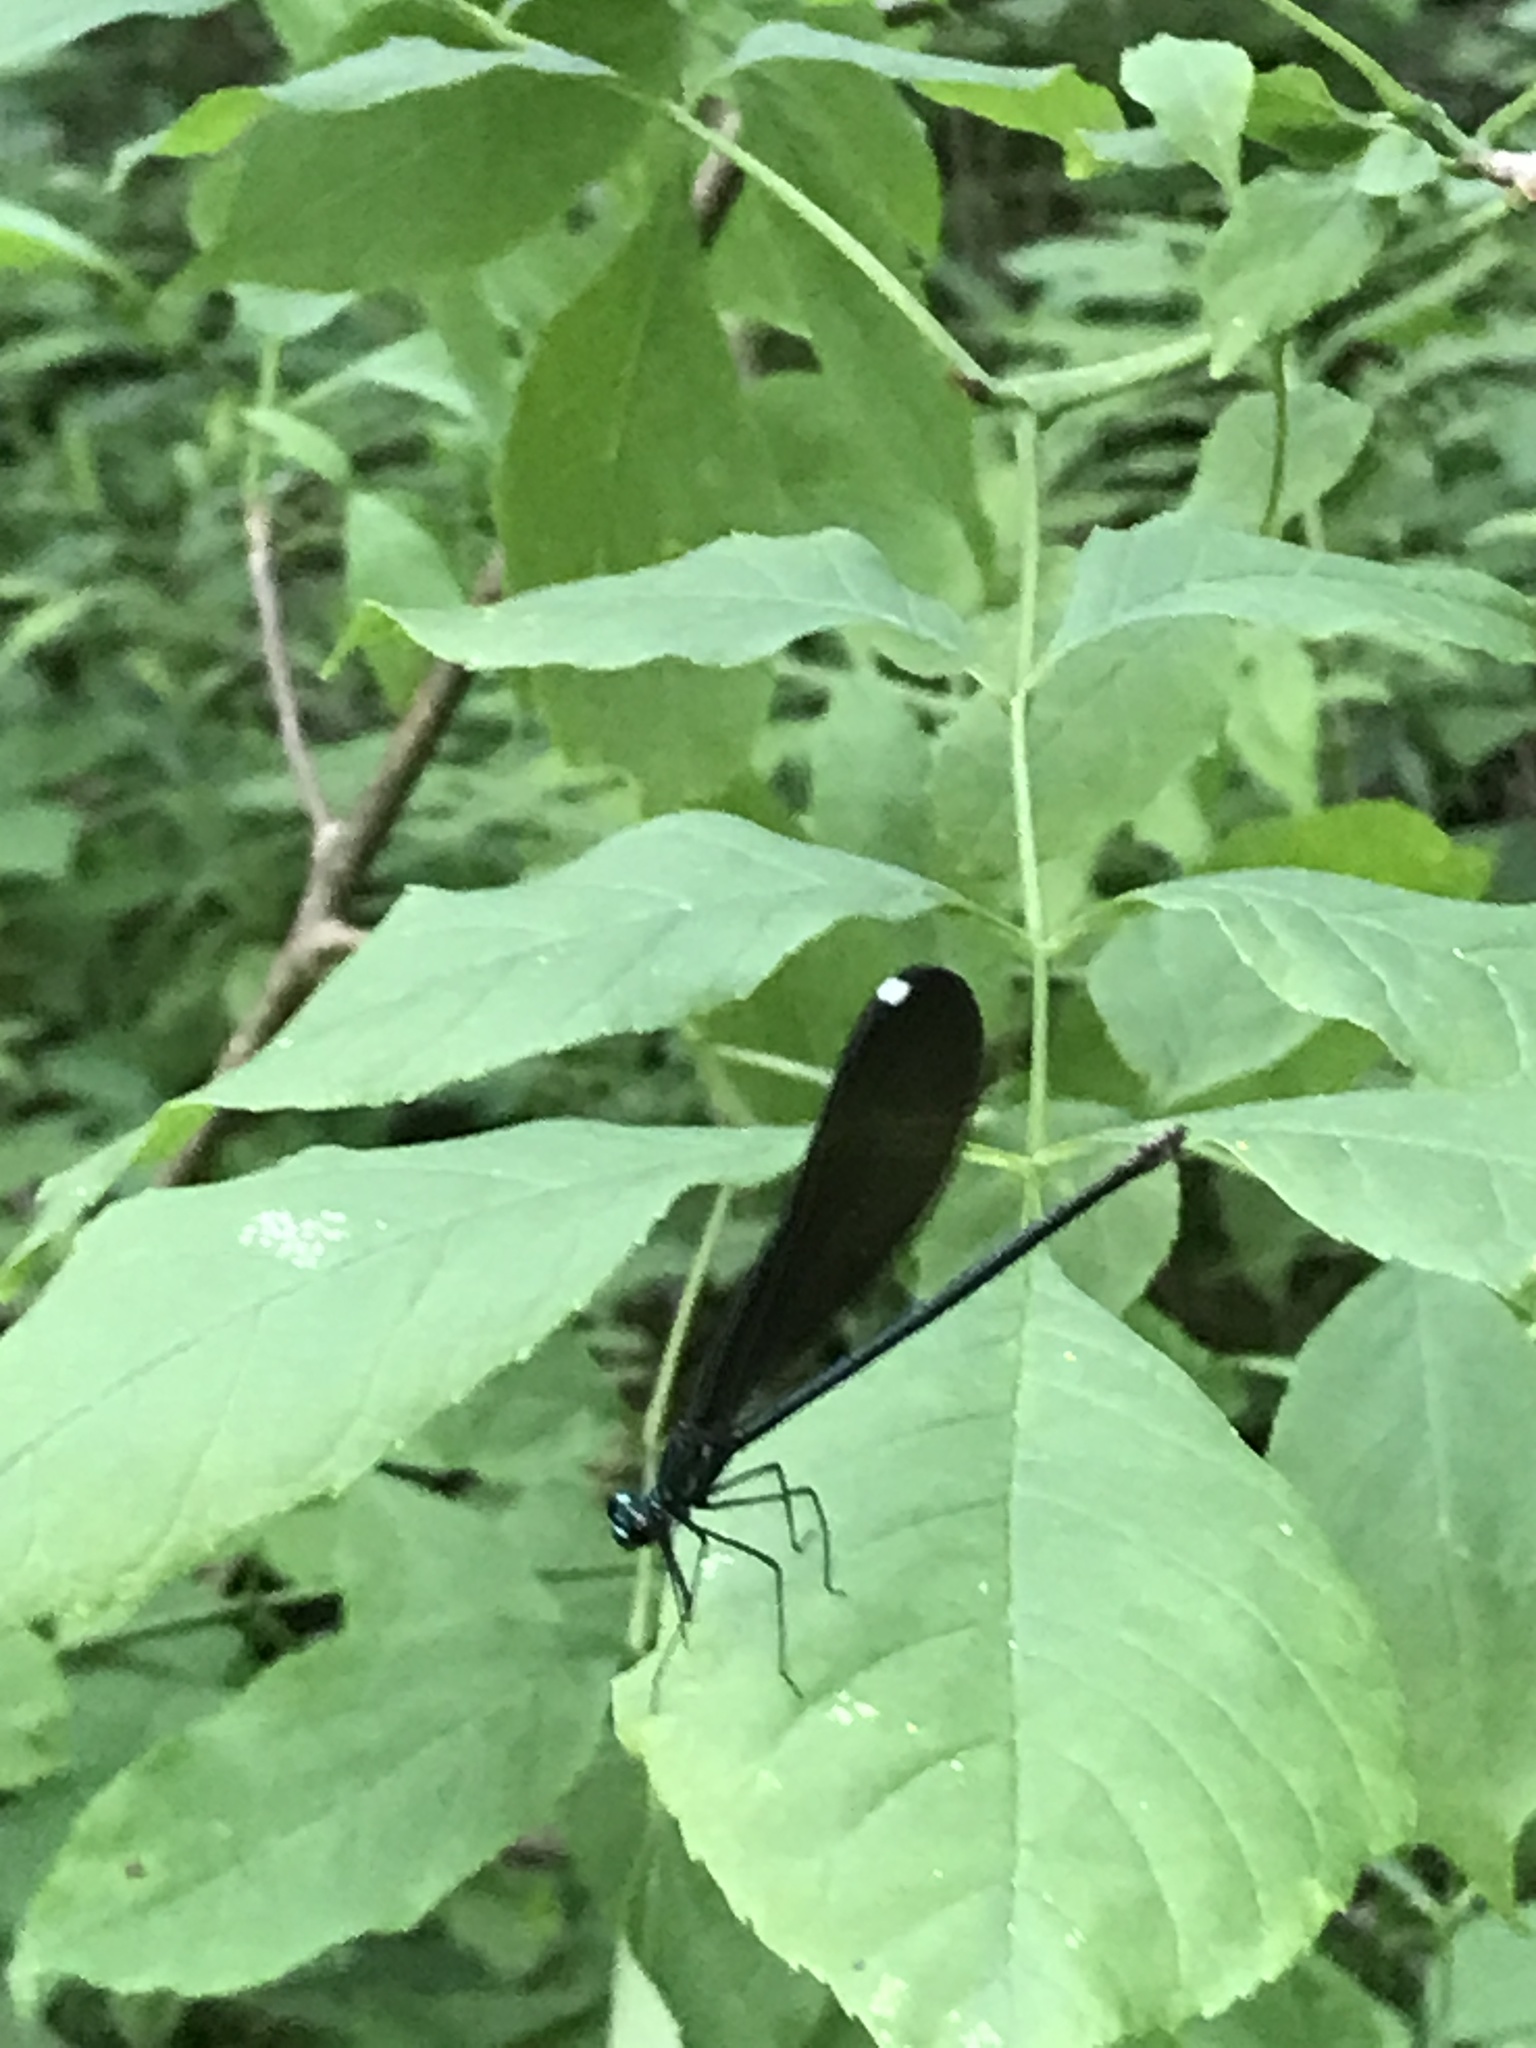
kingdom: Animalia
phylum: Arthropoda
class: Insecta
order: Odonata
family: Calopterygidae
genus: Calopteryx
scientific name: Calopteryx maculata
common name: Ebony jewelwing
